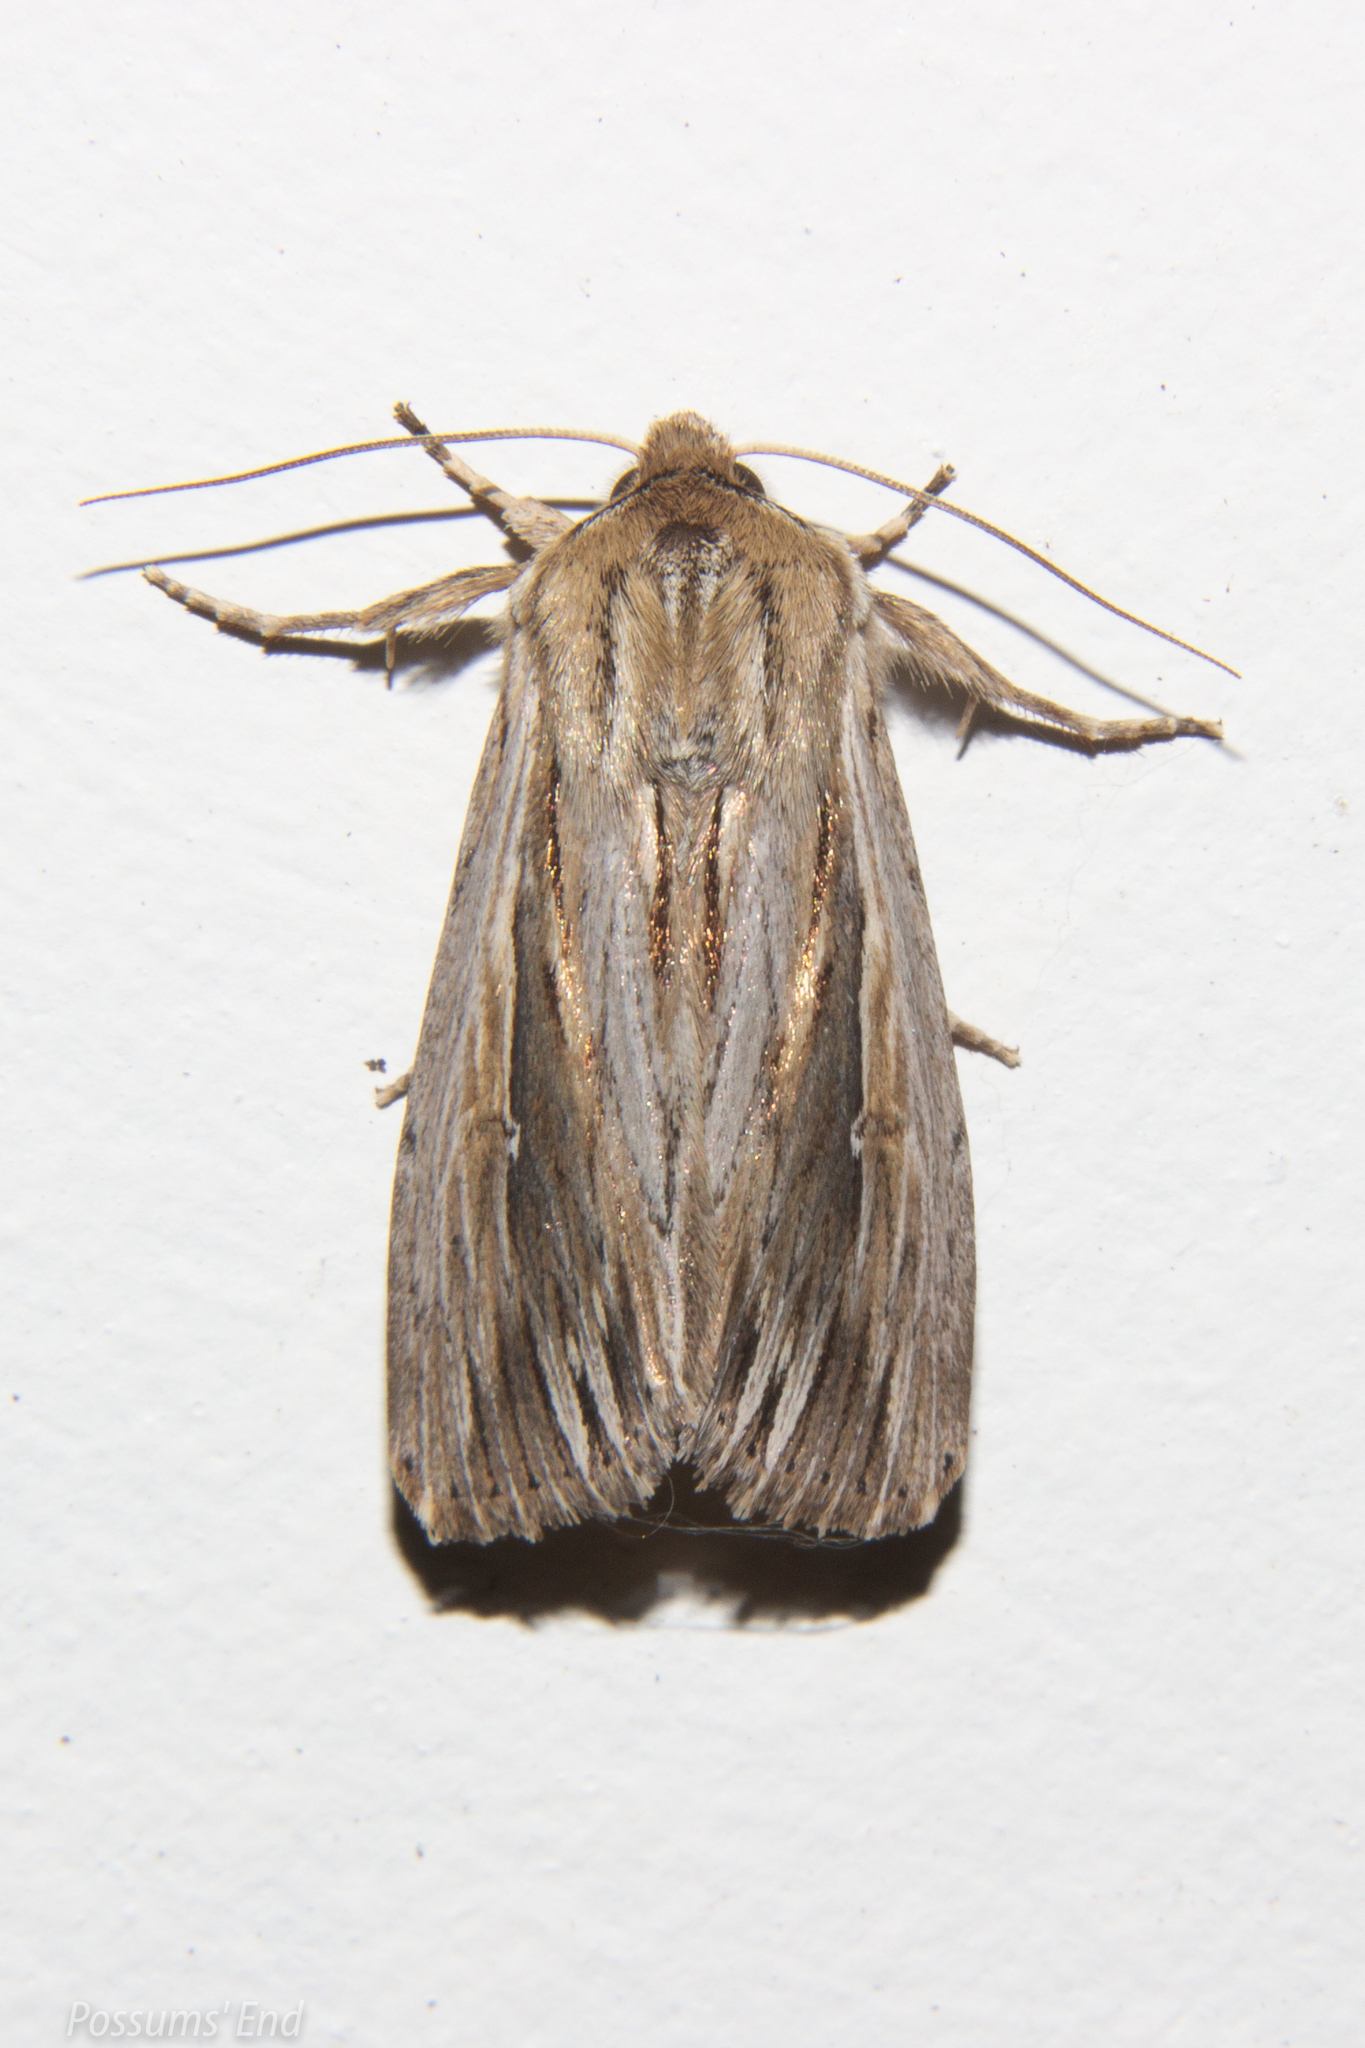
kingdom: Animalia
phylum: Arthropoda
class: Insecta
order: Lepidoptera
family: Noctuidae
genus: Persectania
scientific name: Persectania aversa
